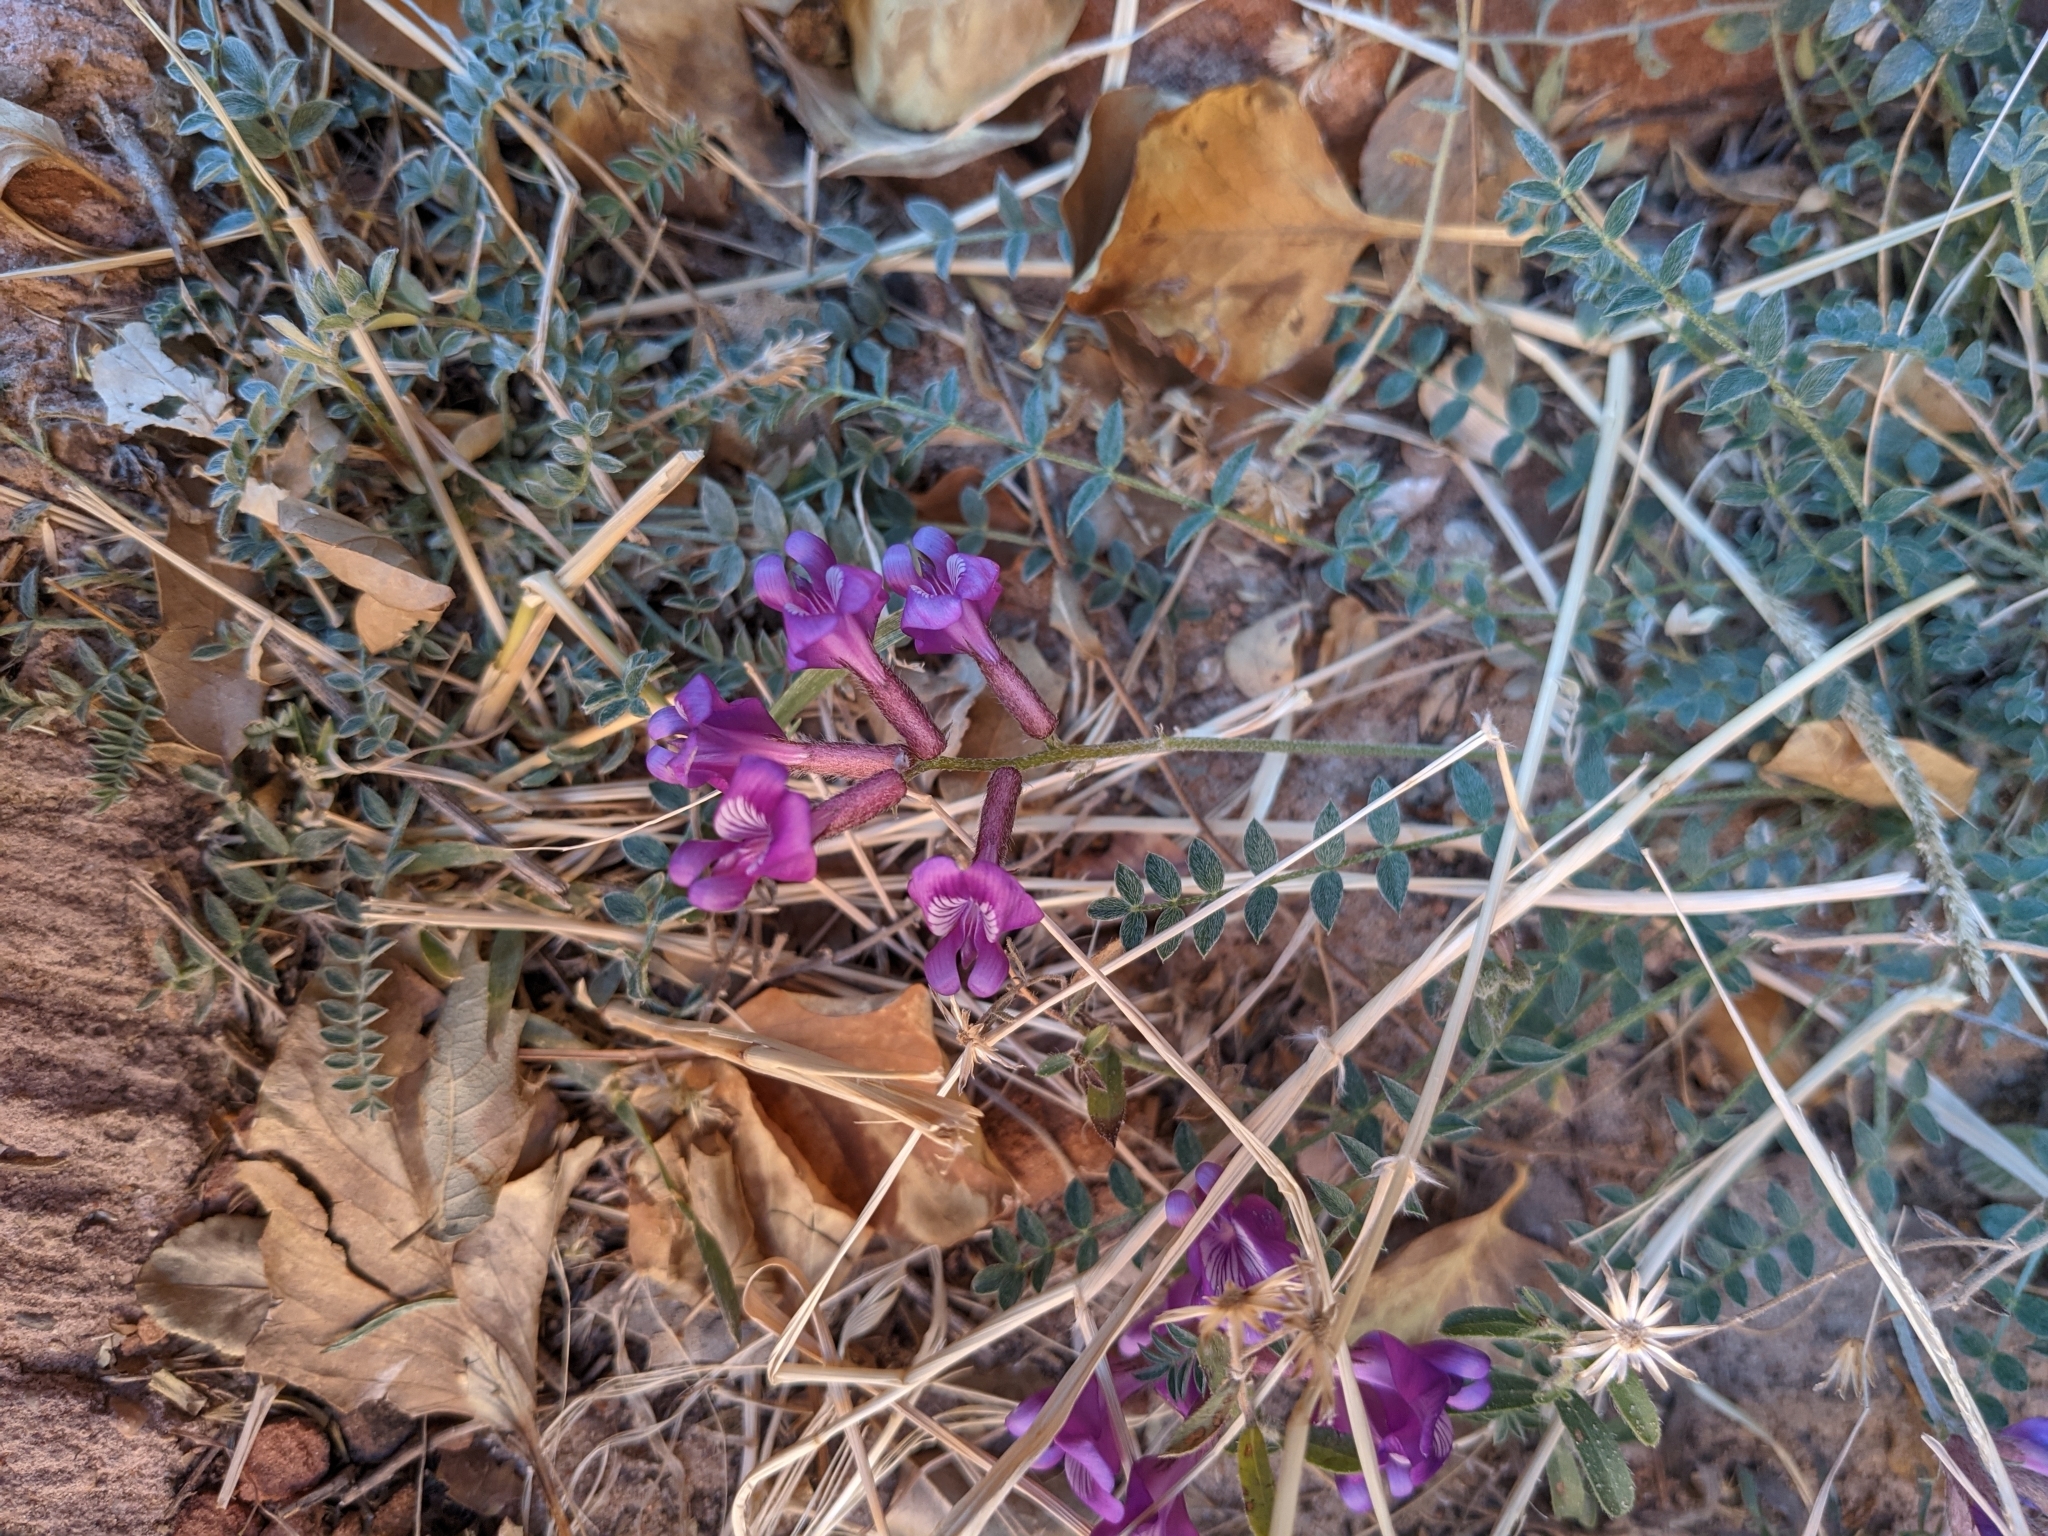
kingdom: Plantae
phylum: Tracheophyta
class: Magnoliopsida
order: Fabales
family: Fabaceae
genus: Astragalus
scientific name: Astragalus zionis
